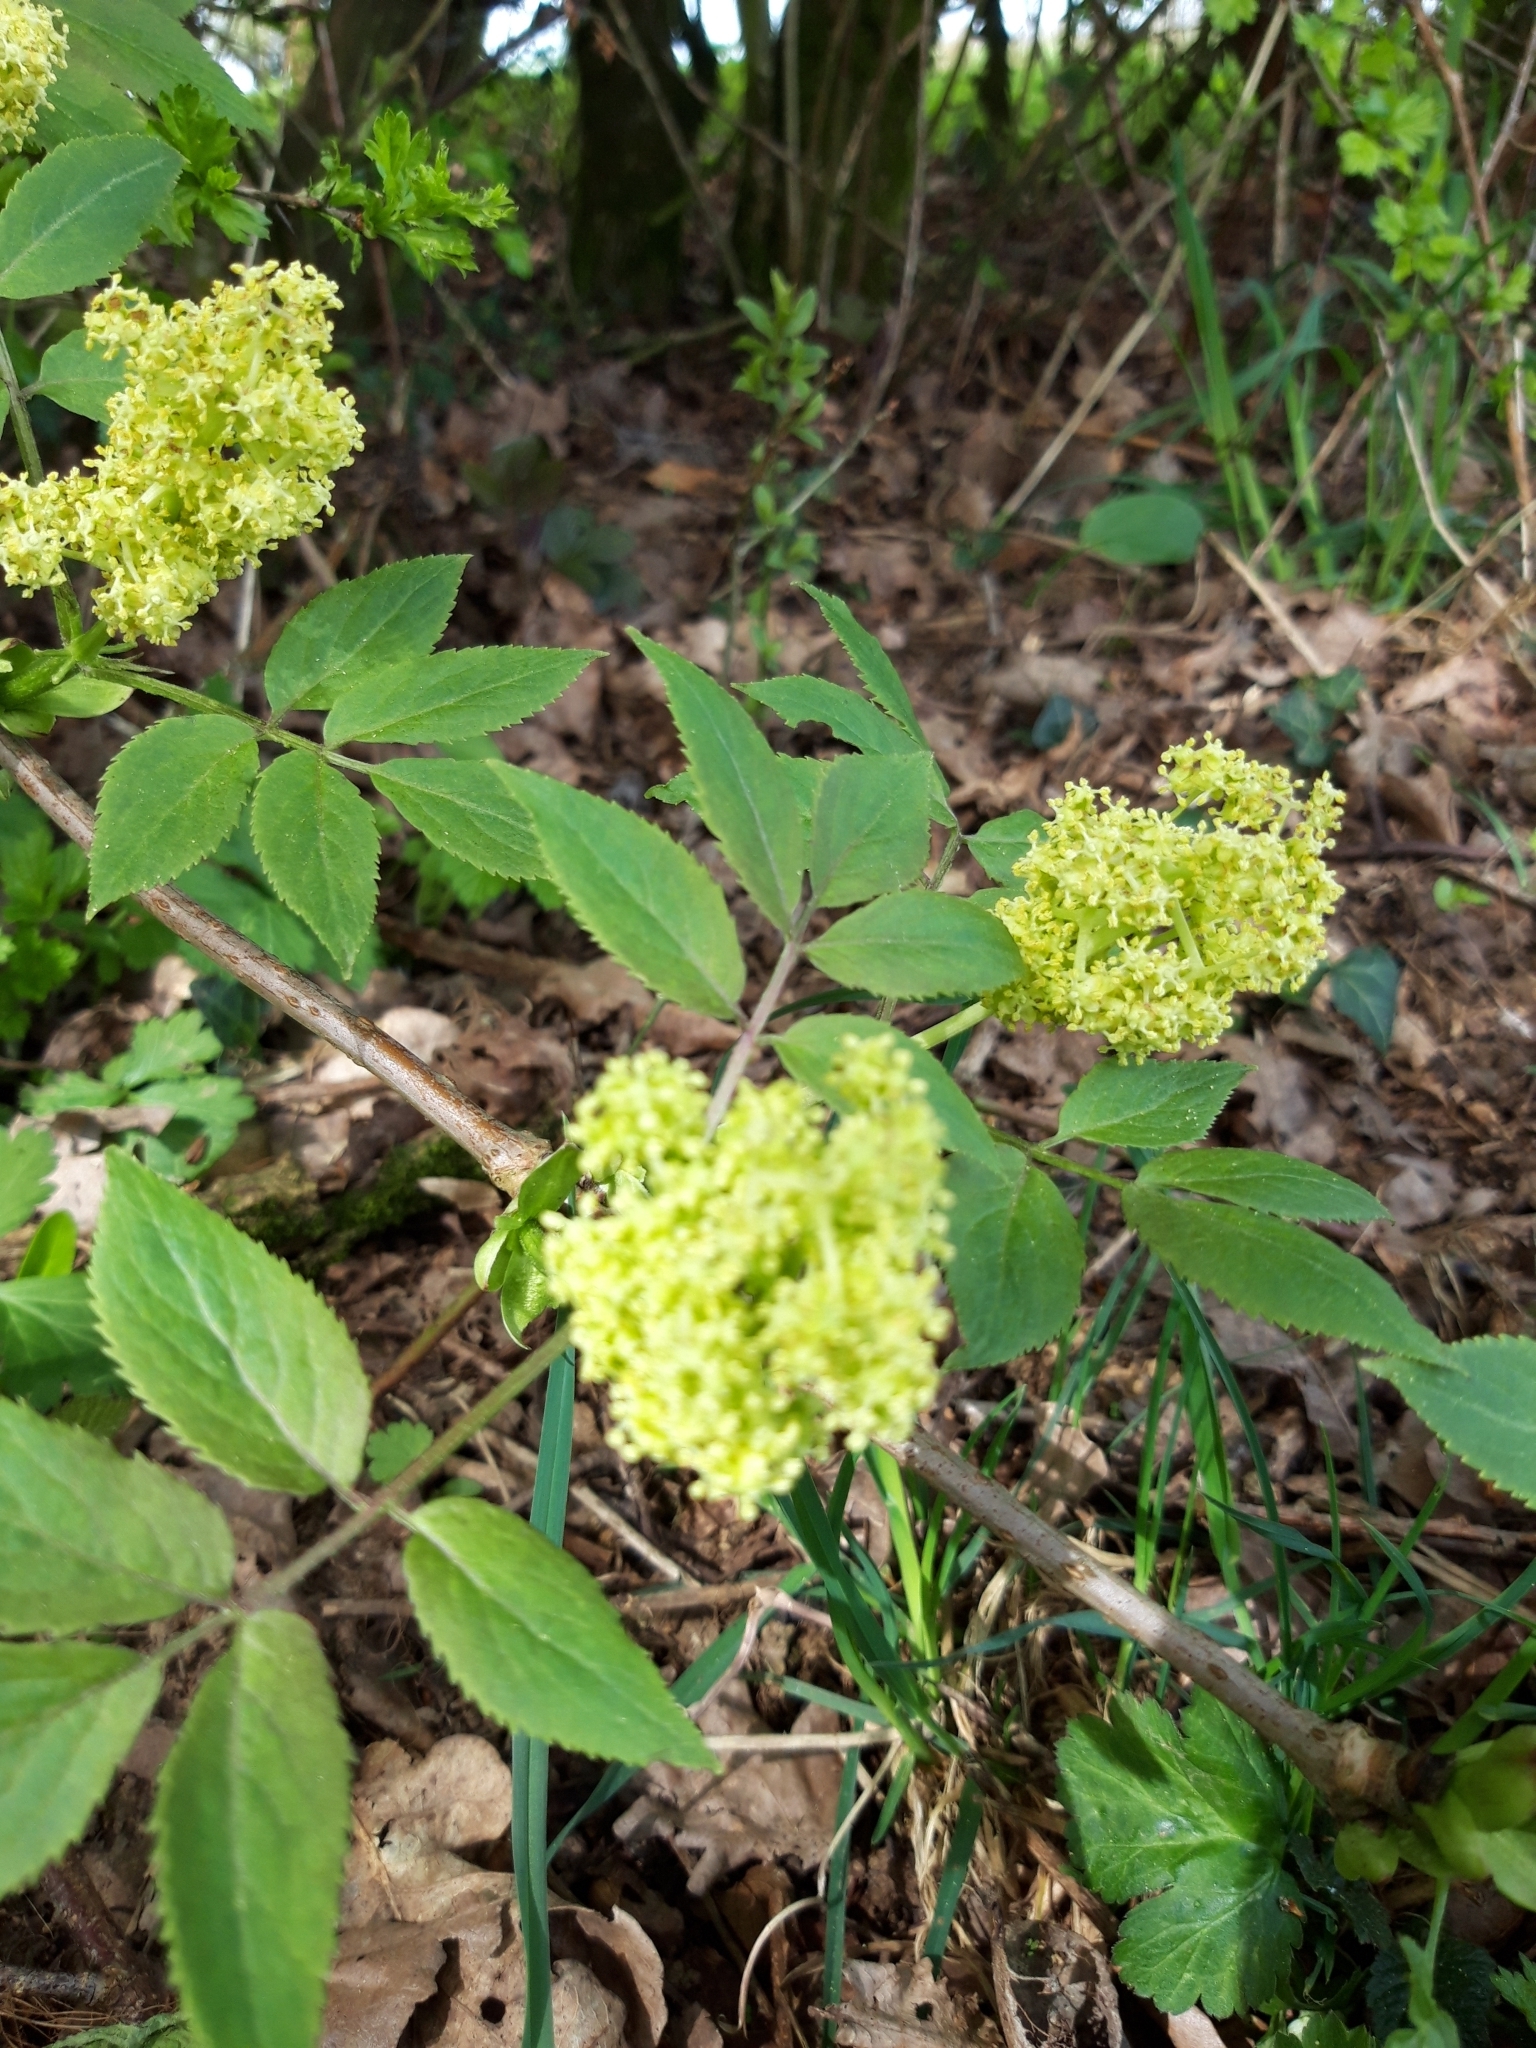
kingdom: Plantae
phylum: Tracheophyta
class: Magnoliopsida
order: Dipsacales
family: Viburnaceae
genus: Sambucus
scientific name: Sambucus racemosa
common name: Red-berried elder
